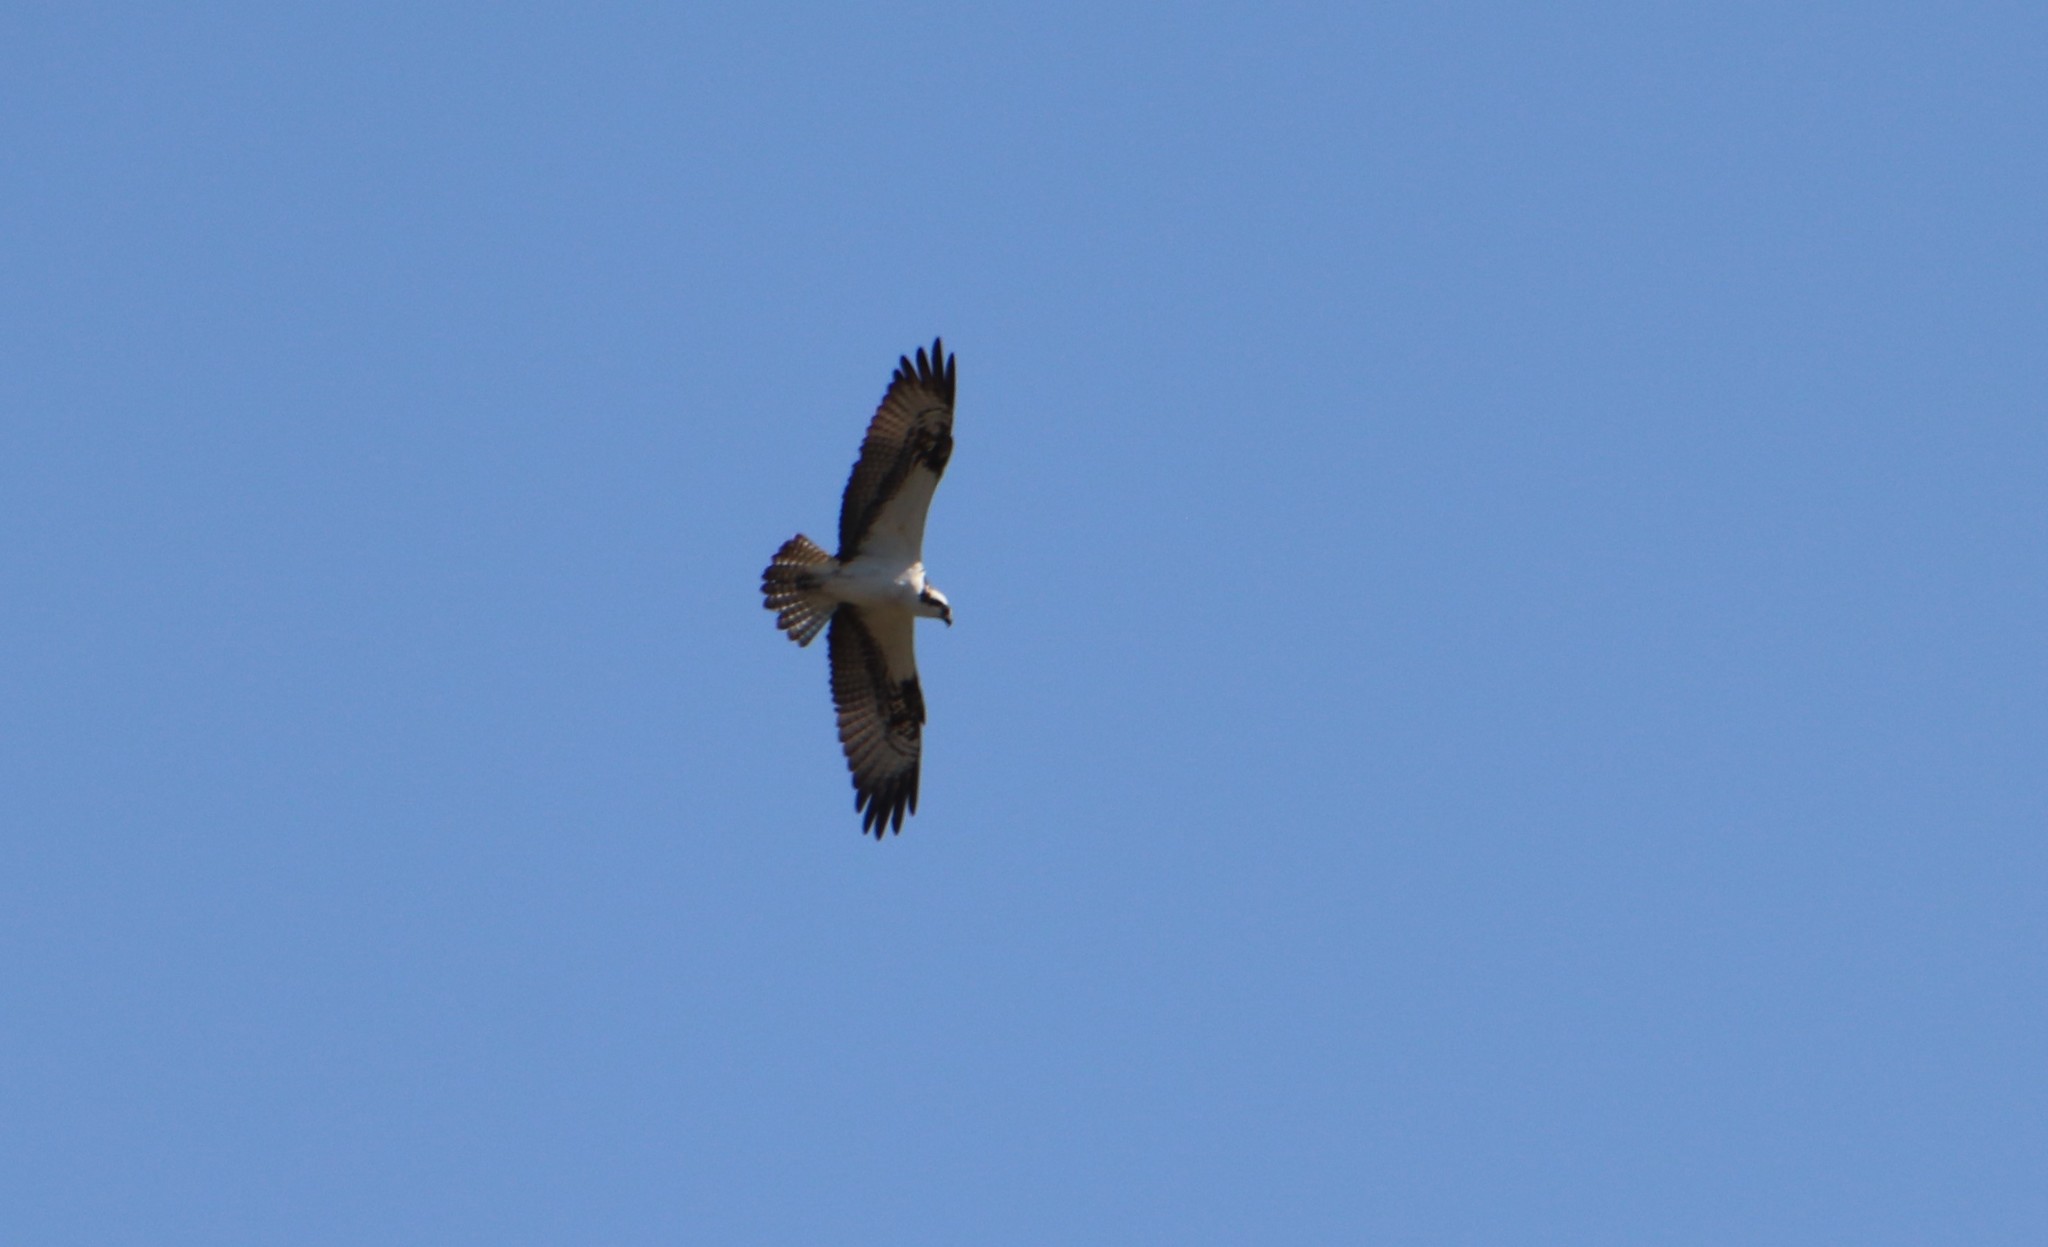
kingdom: Animalia
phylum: Chordata
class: Aves
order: Accipitriformes
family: Pandionidae
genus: Pandion
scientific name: Pandion haliaetus
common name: Osprey
